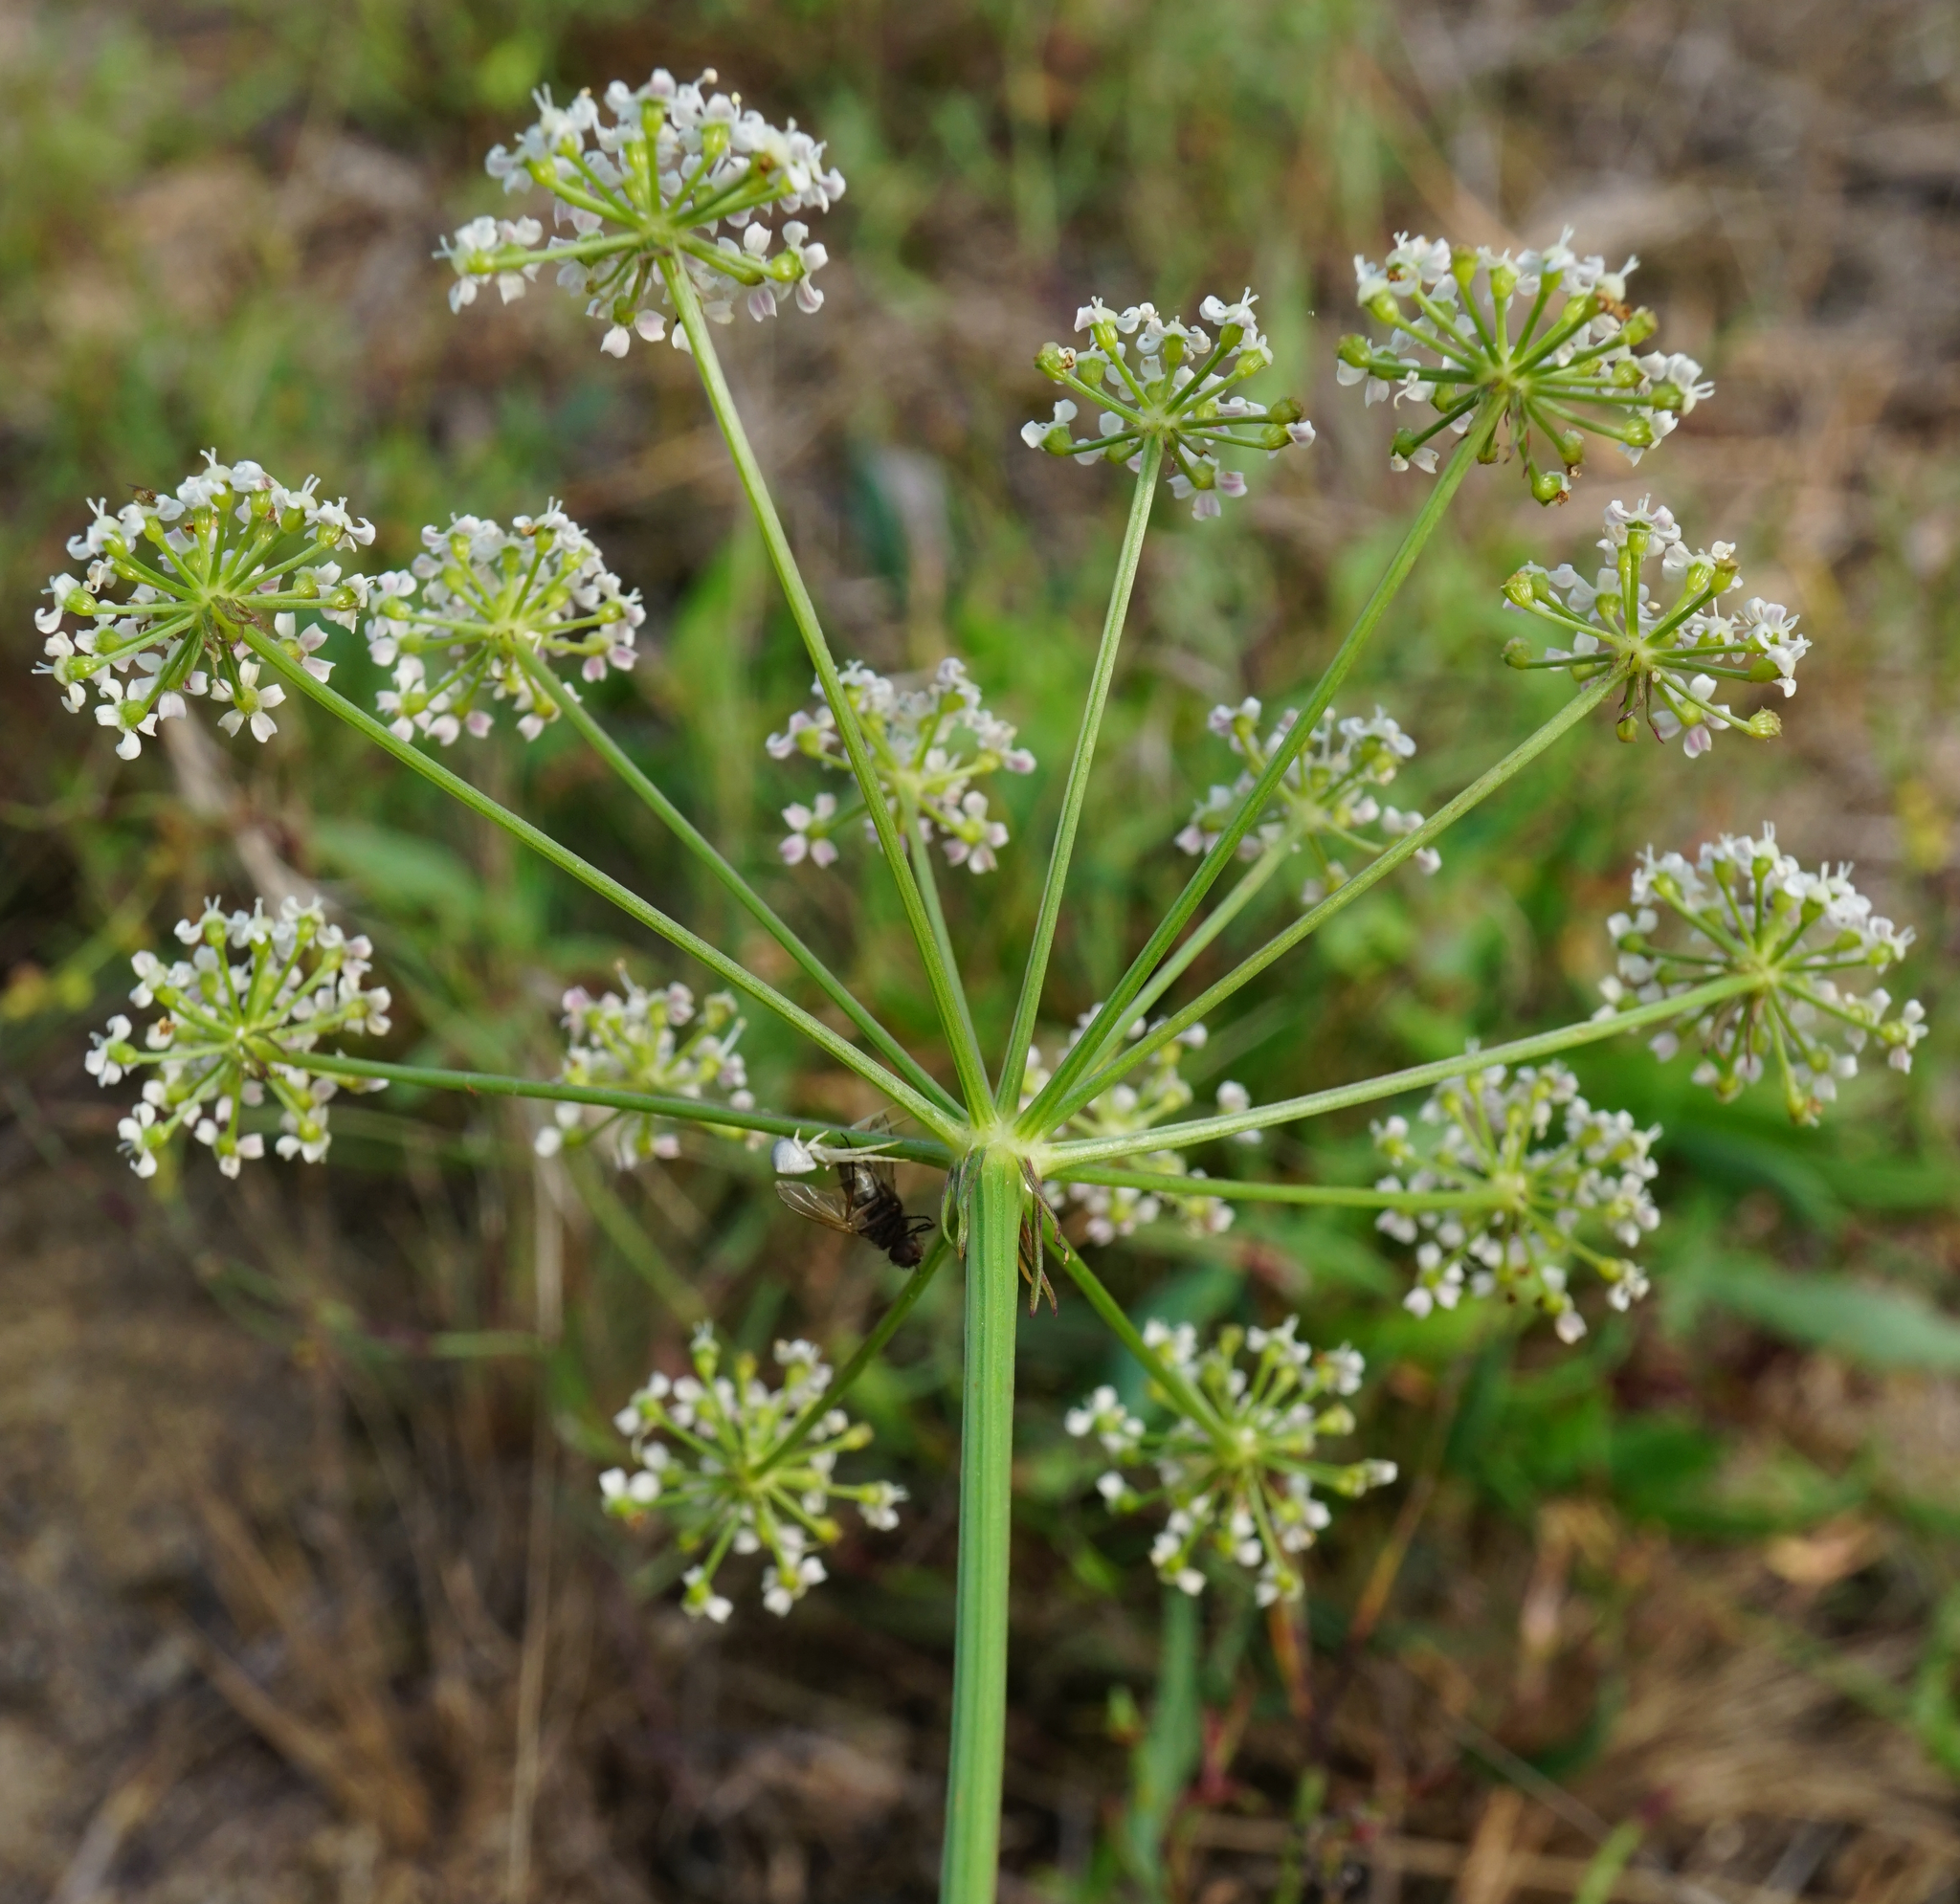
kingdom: Plantae
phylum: Tracheophyta
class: Magnoliopsida
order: Apiales
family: Apiaceae
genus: Oreoselinum
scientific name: Oreoselinum nigrum
